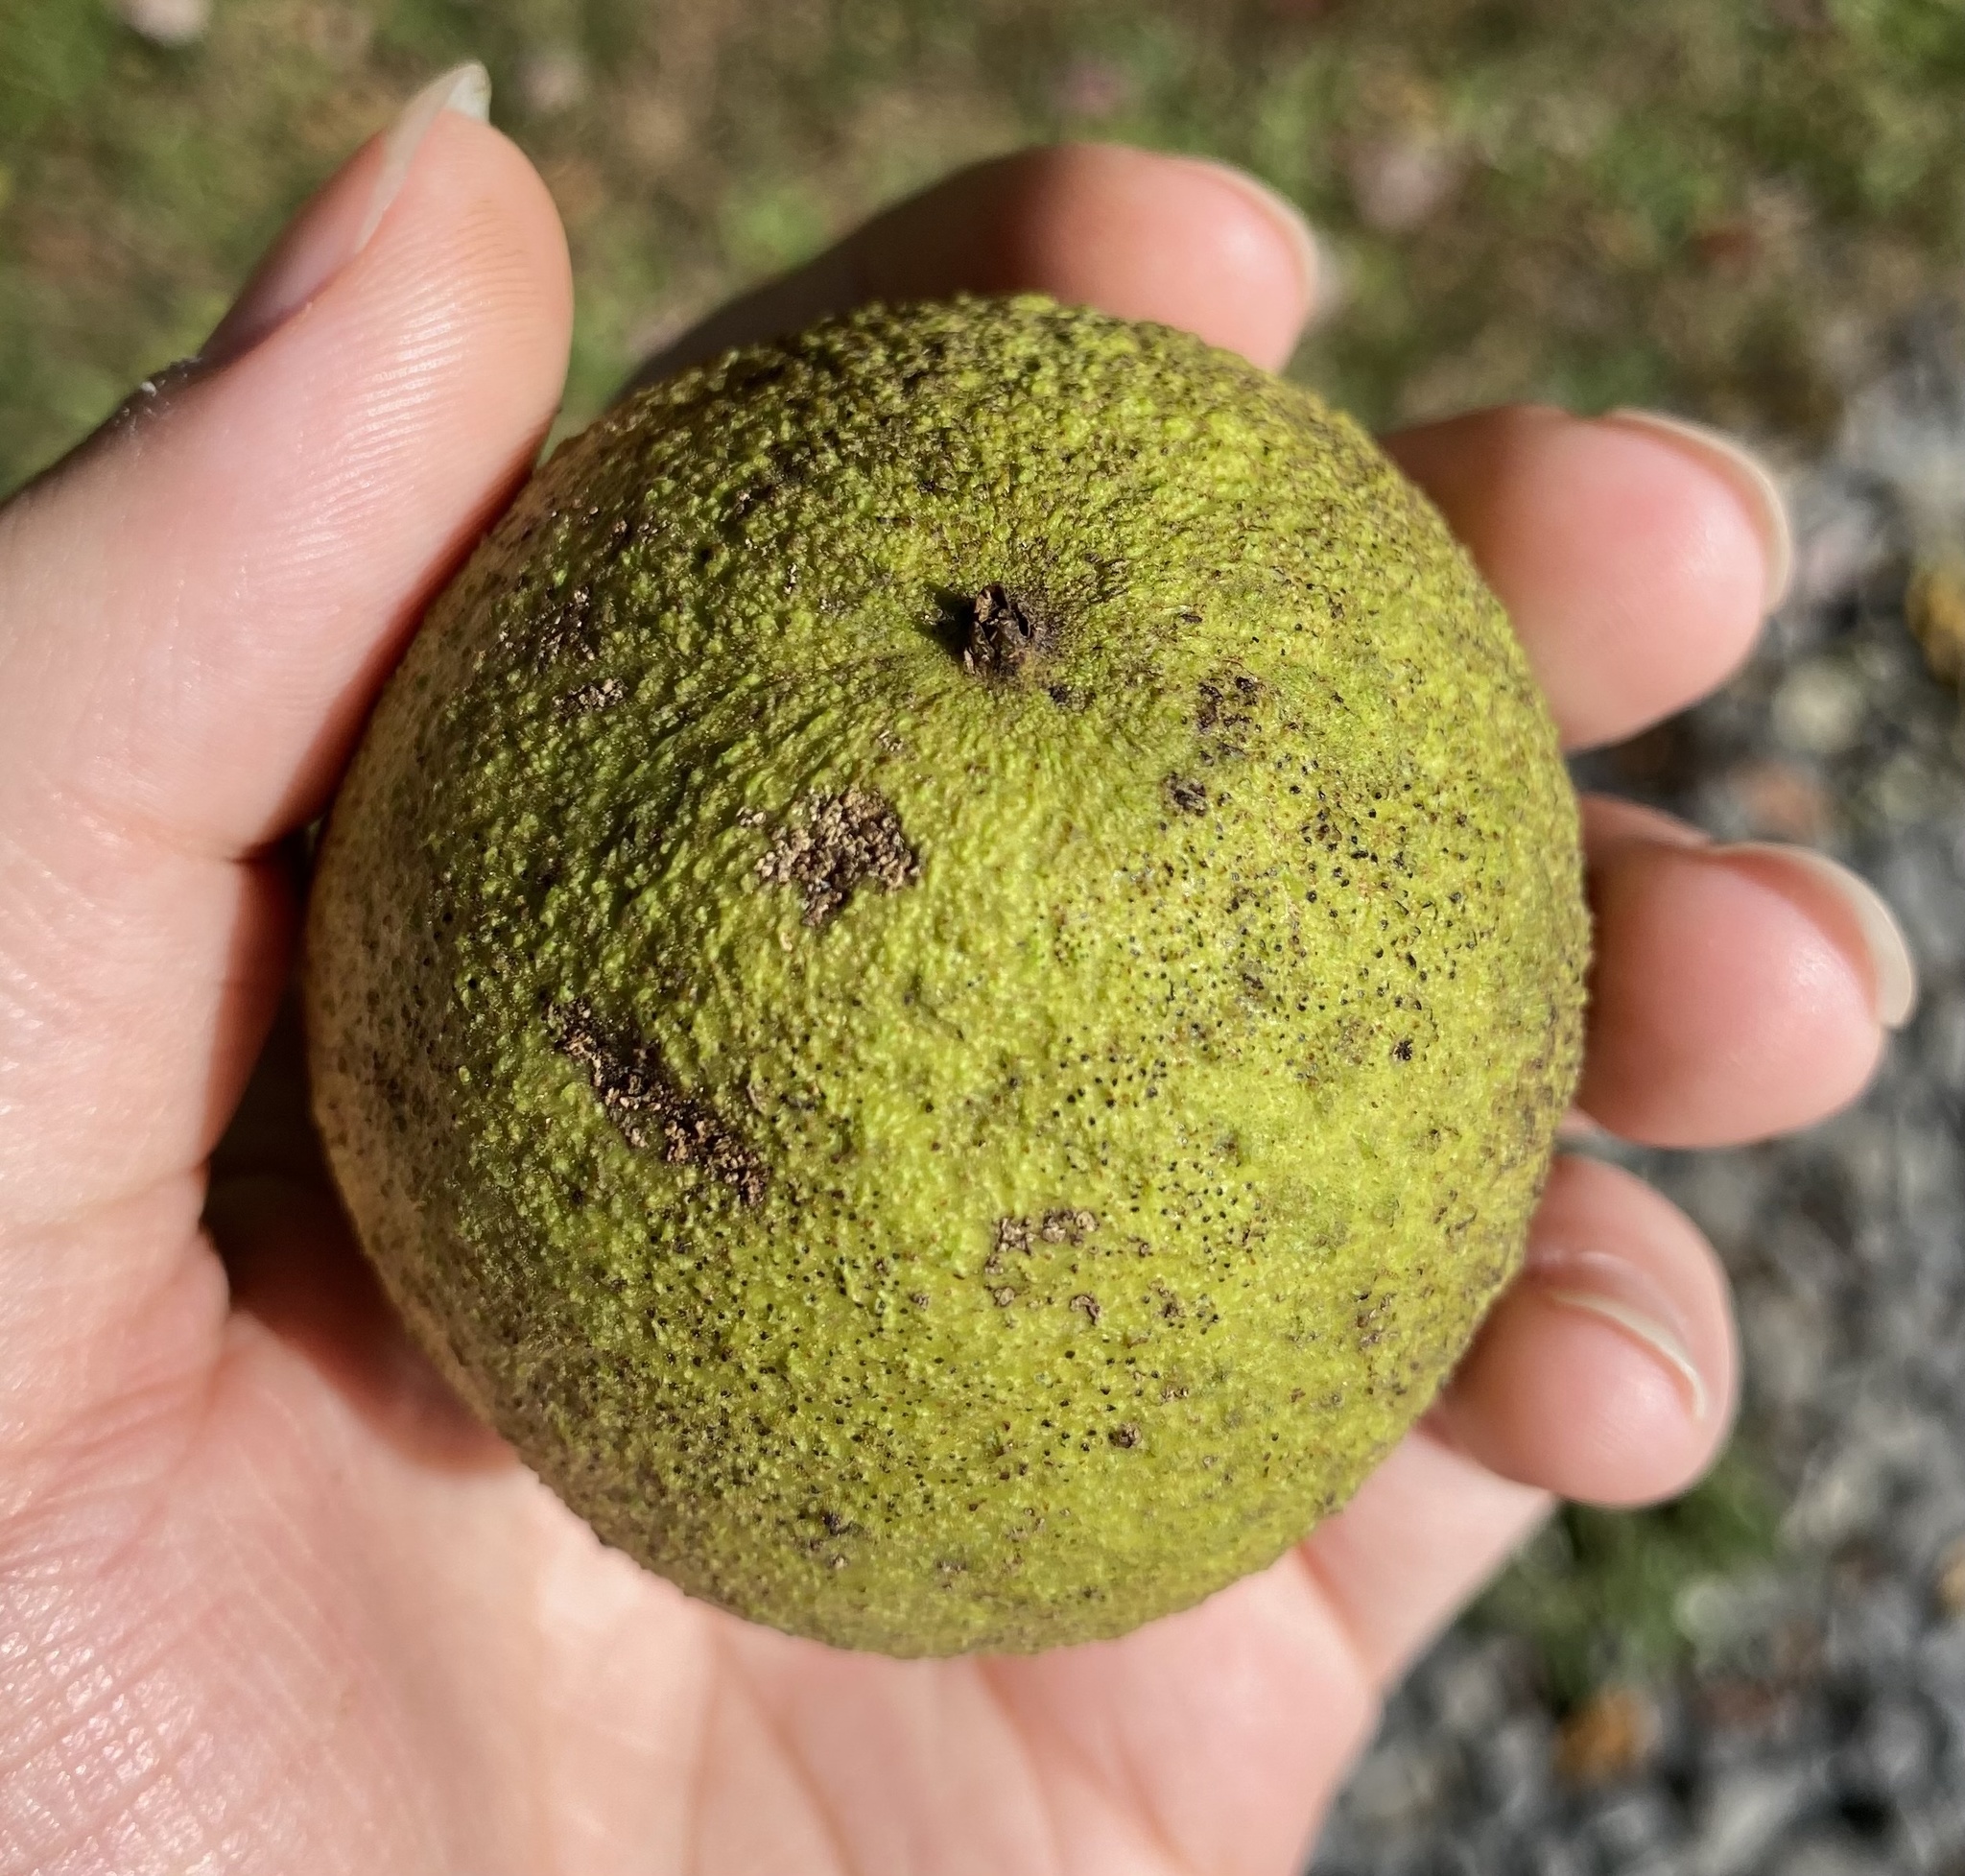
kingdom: Plantae
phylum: Tracheophyta
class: Magnoliopsida
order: Fagales
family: Juglandaceae
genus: Juglans
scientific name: Juglans nigra
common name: Black walnut
